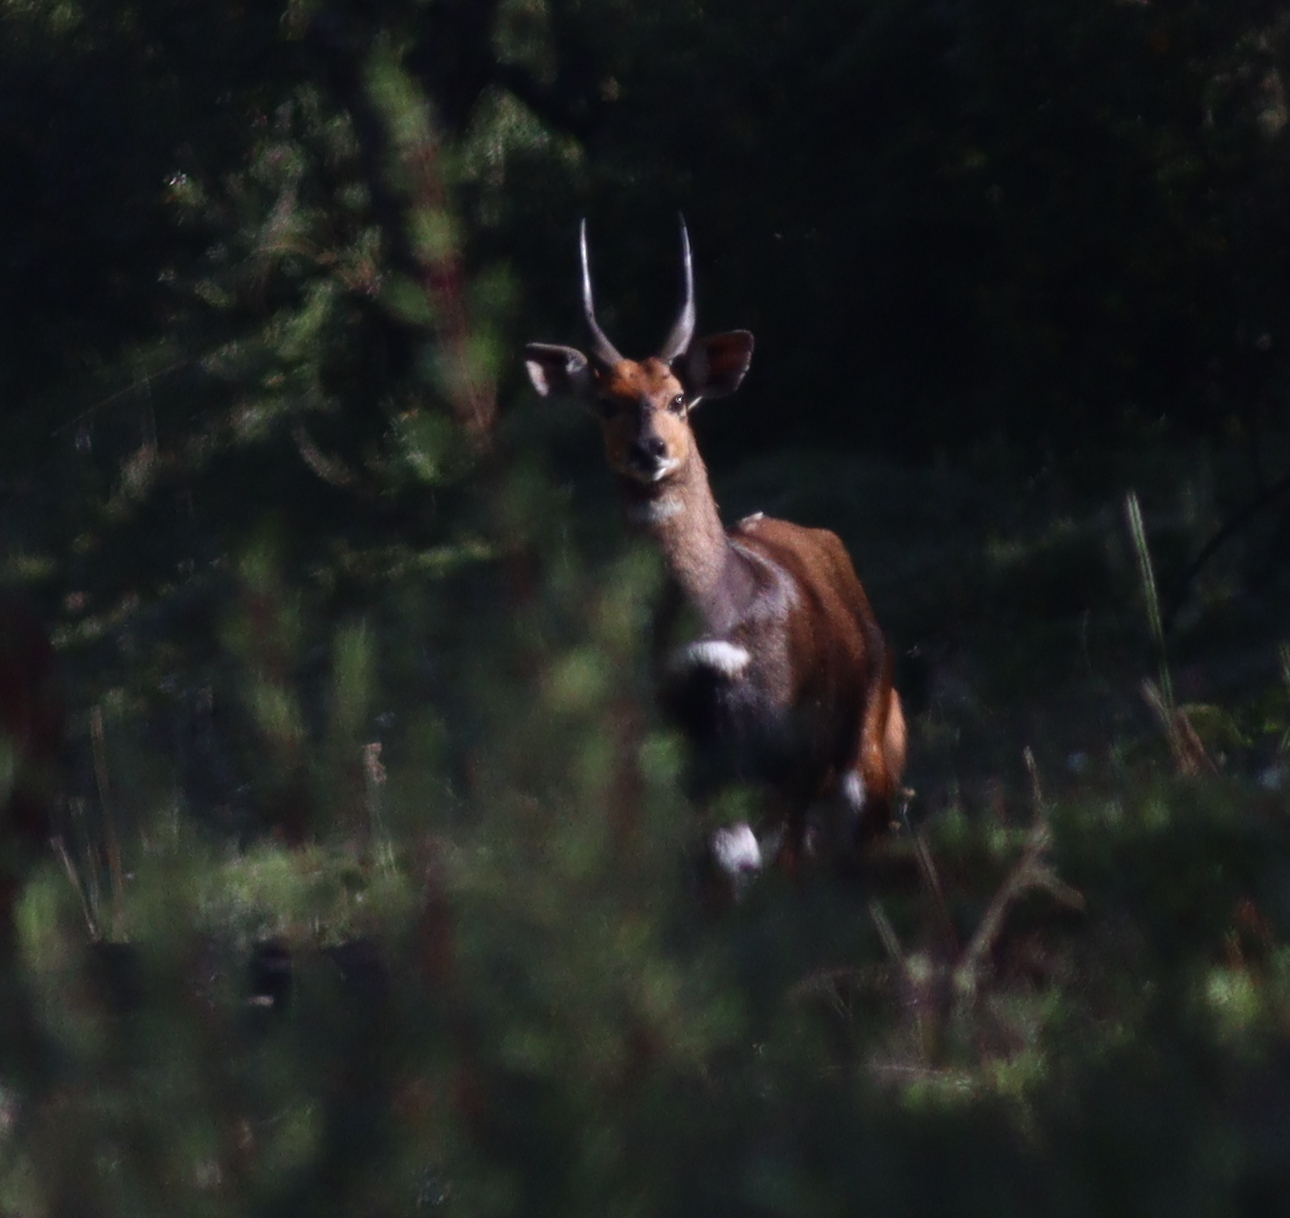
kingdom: Animalia
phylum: Chordata
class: Mammalia
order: Artiodactyla
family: Bovidae
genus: Tragelaphus
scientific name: Tragelaphus scriptus
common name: Bushbuck
